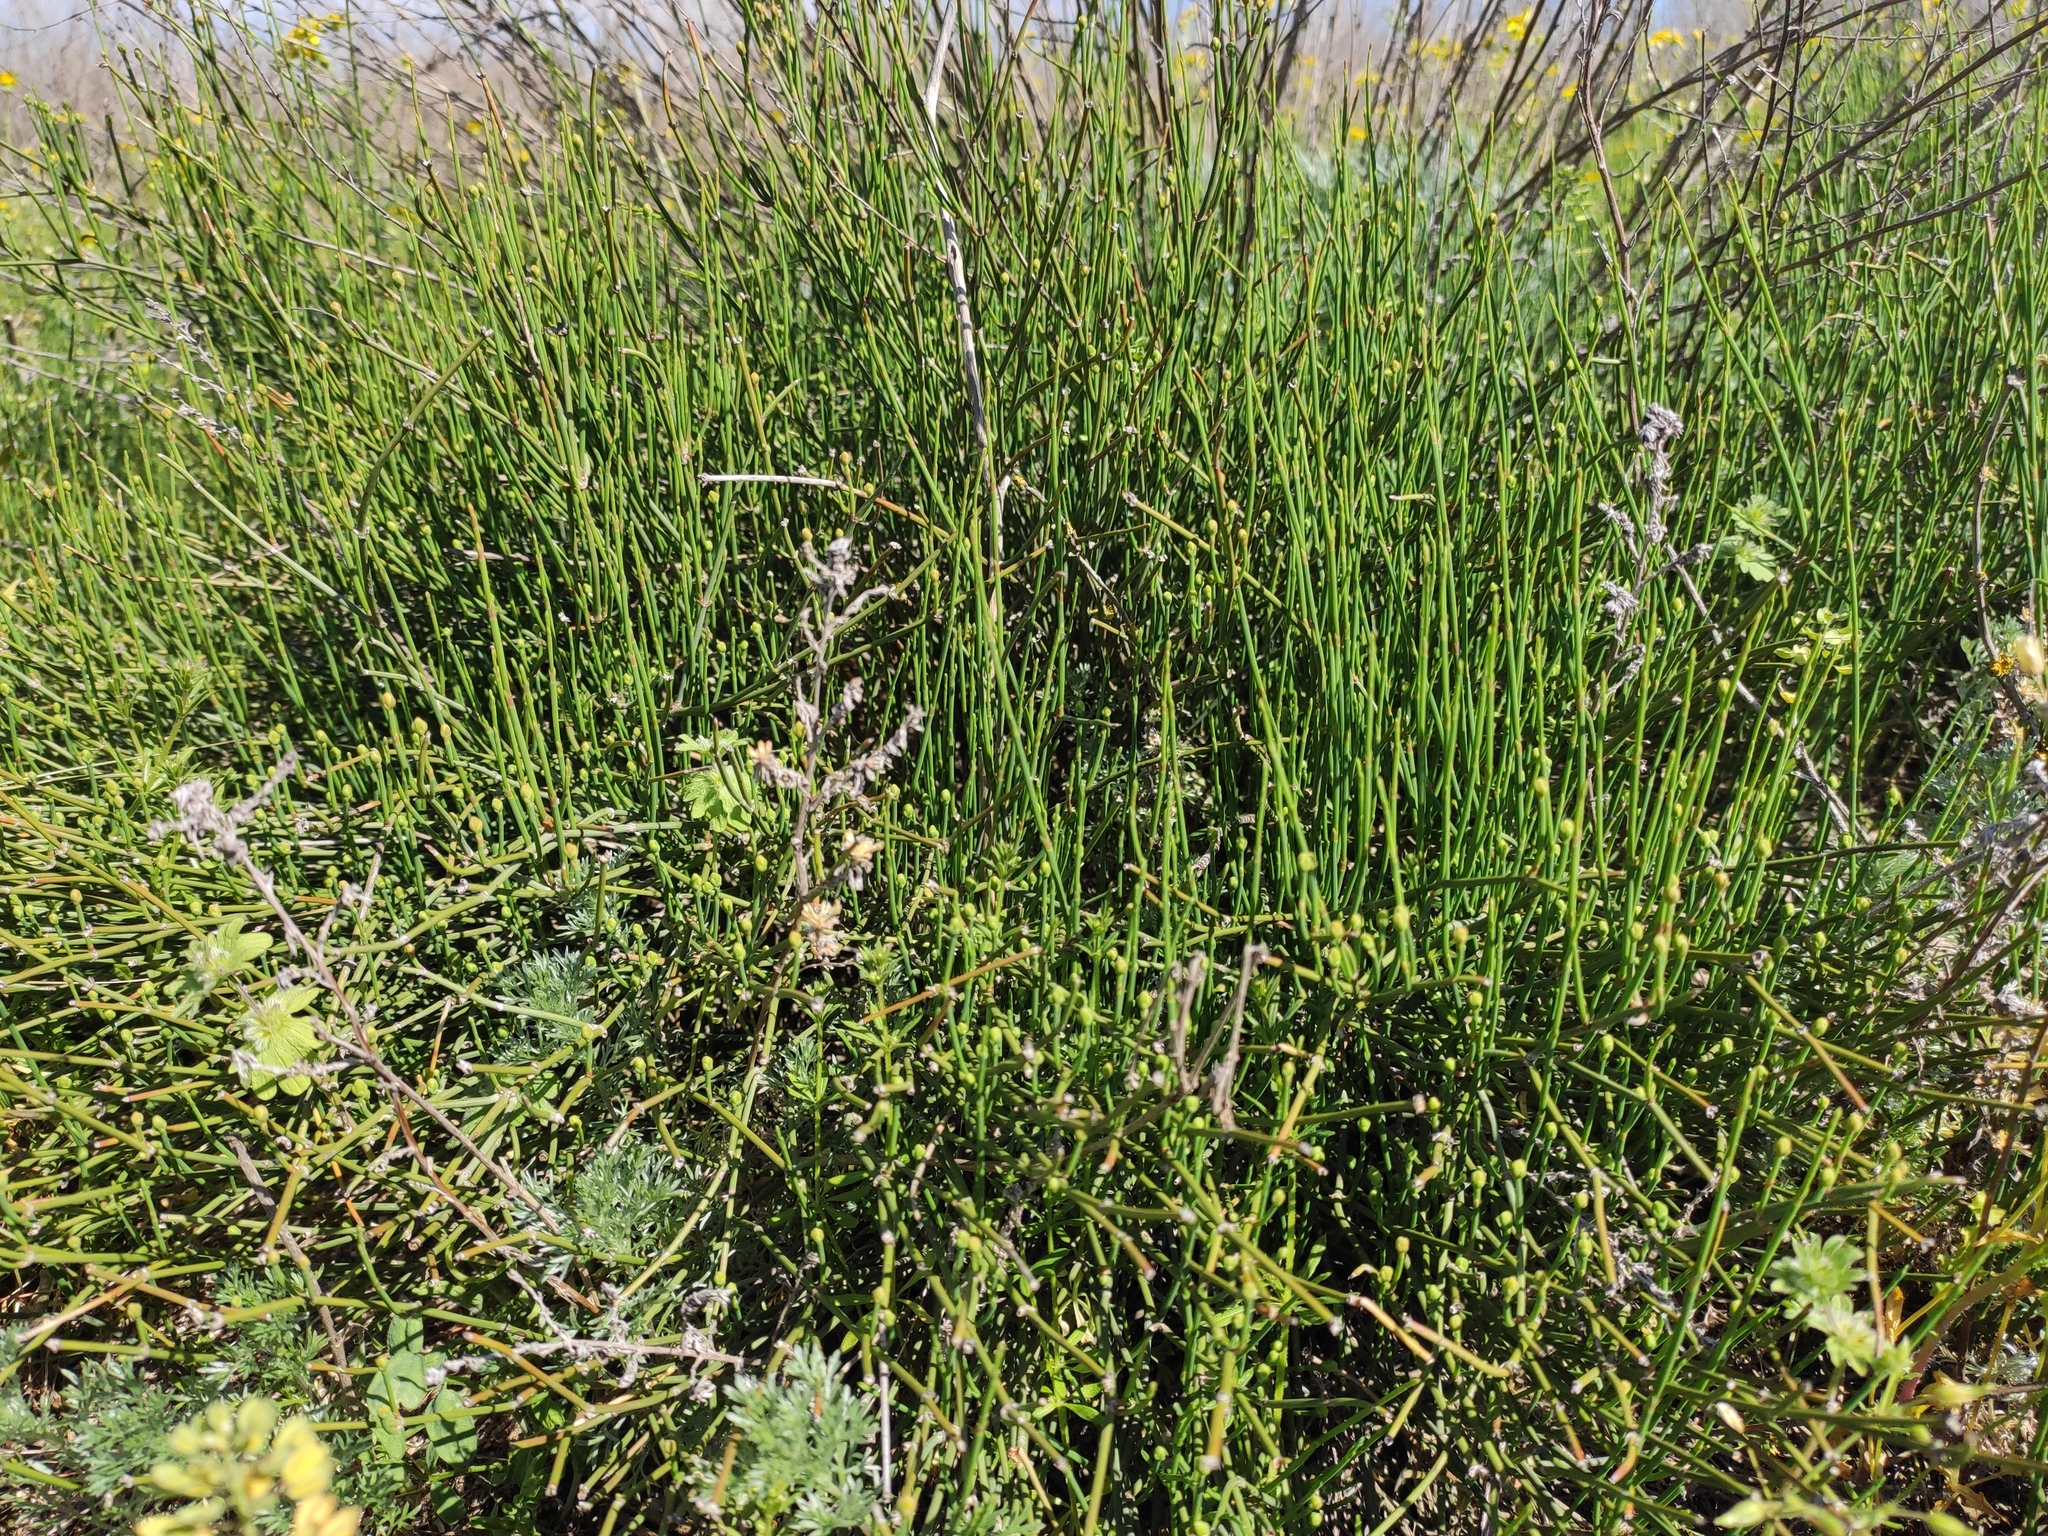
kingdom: Plantae
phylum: Tracheophyta
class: Gnetopsida
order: Ephedrales
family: Ephedraceae
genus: Ephedra
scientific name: Ephedra distachya
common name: Sea grape
